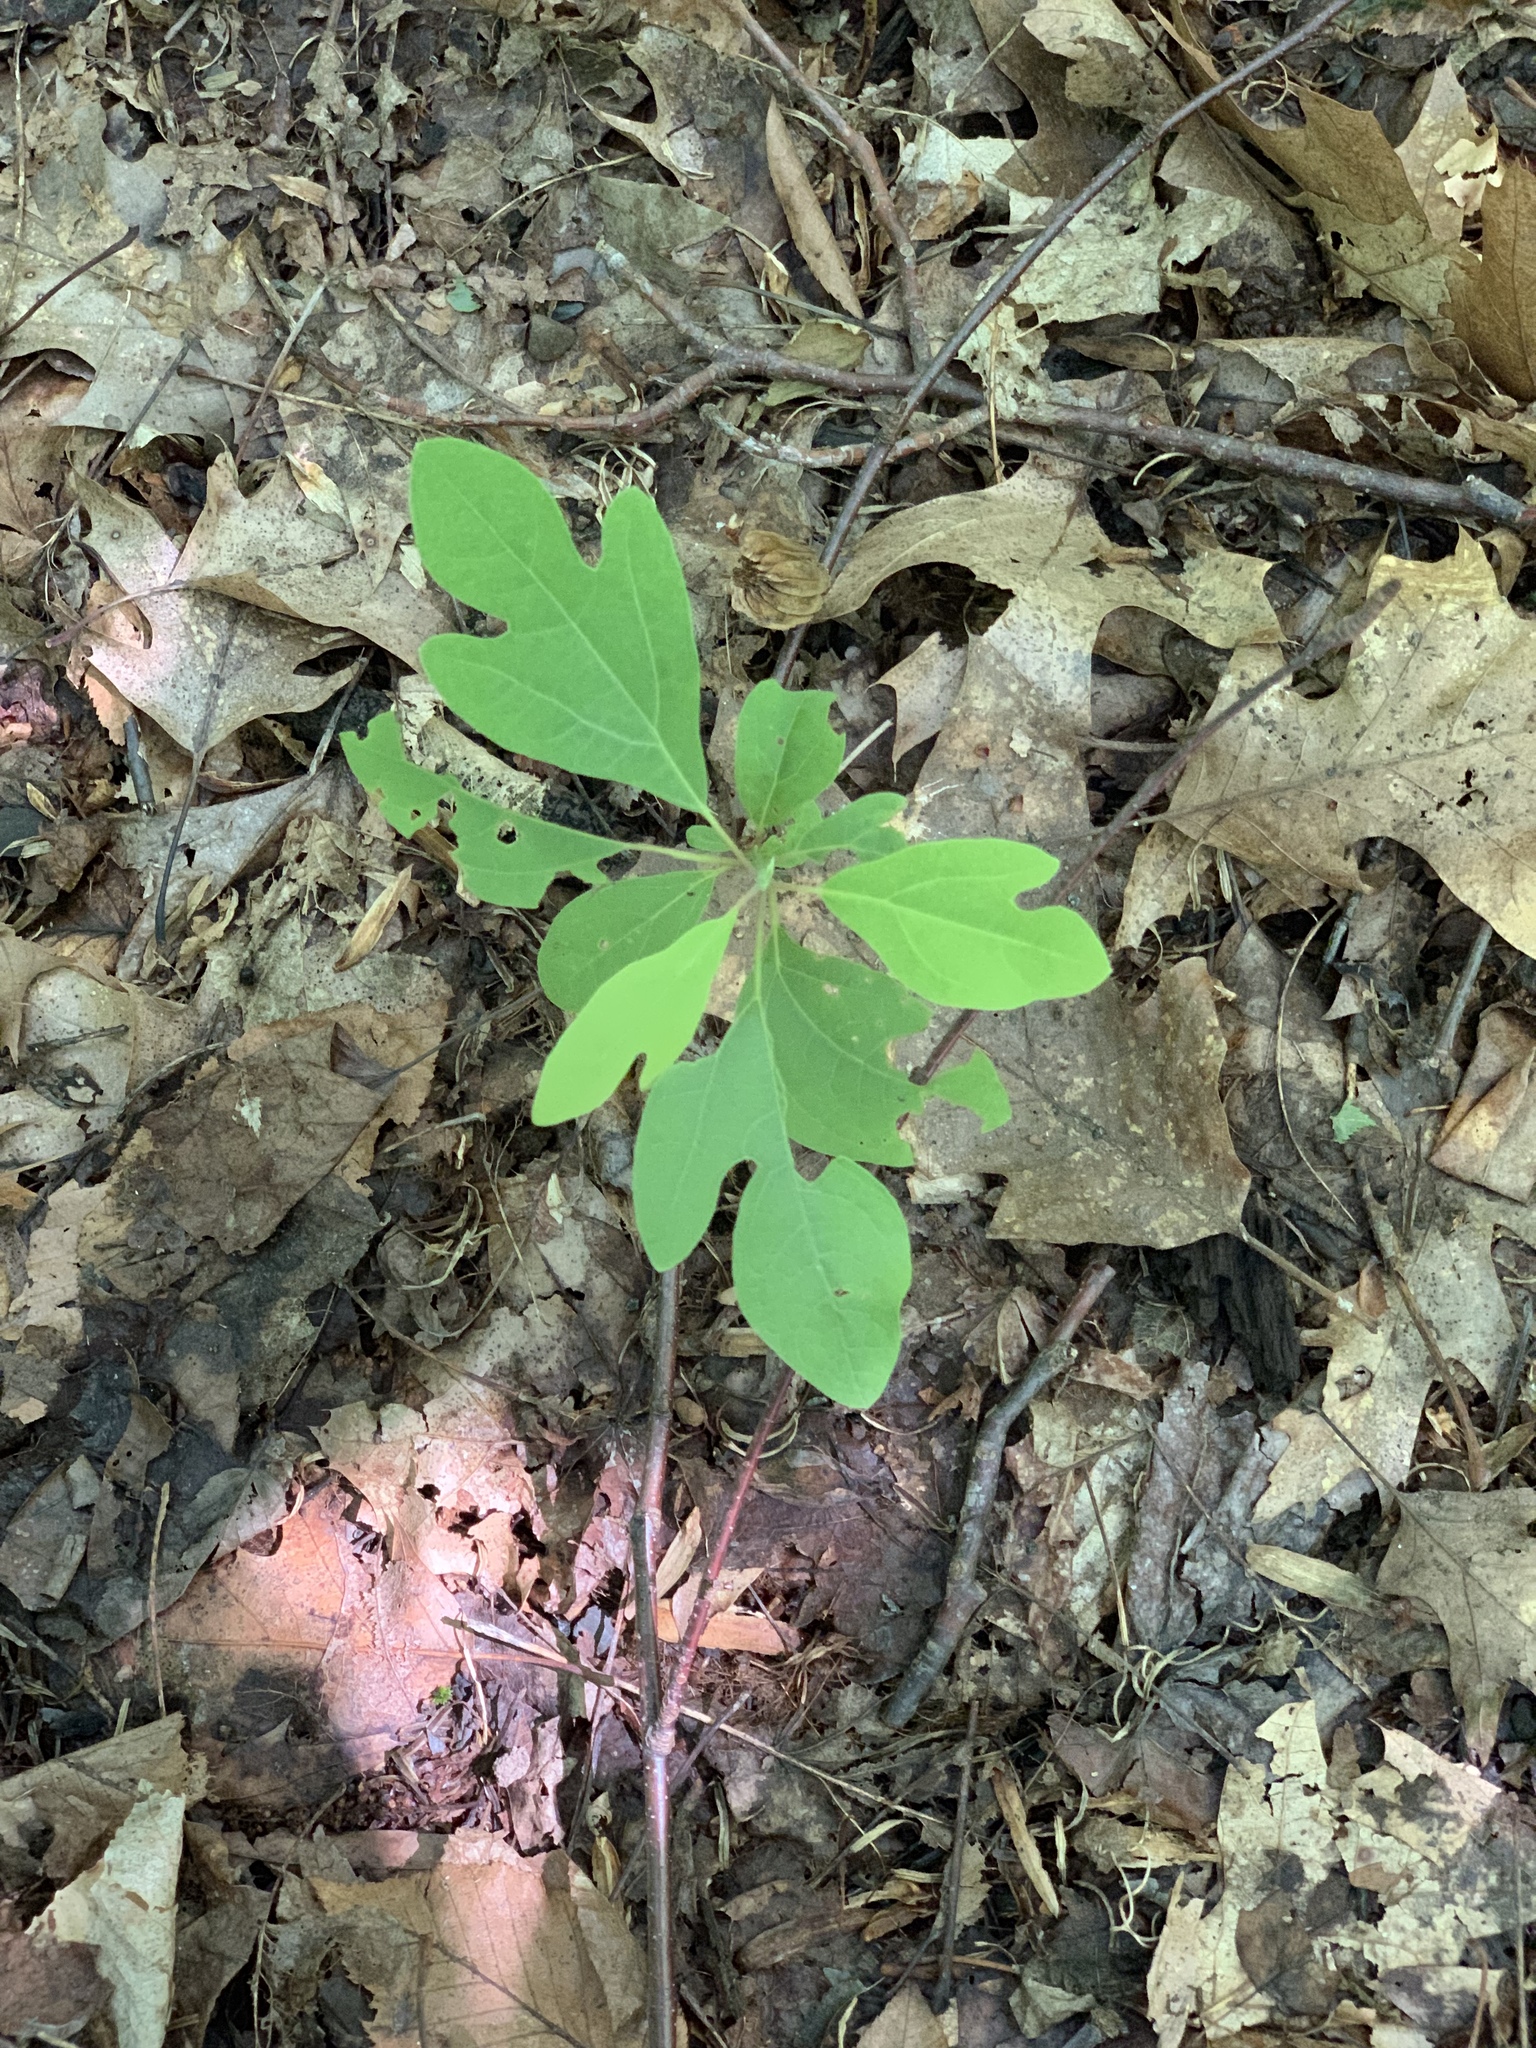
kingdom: Plantae
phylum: Tracheophyta
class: Magnoliopsida
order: Laurales
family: Lauraceae
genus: Sassafras
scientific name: Sassafras albidum
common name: Sassafras
